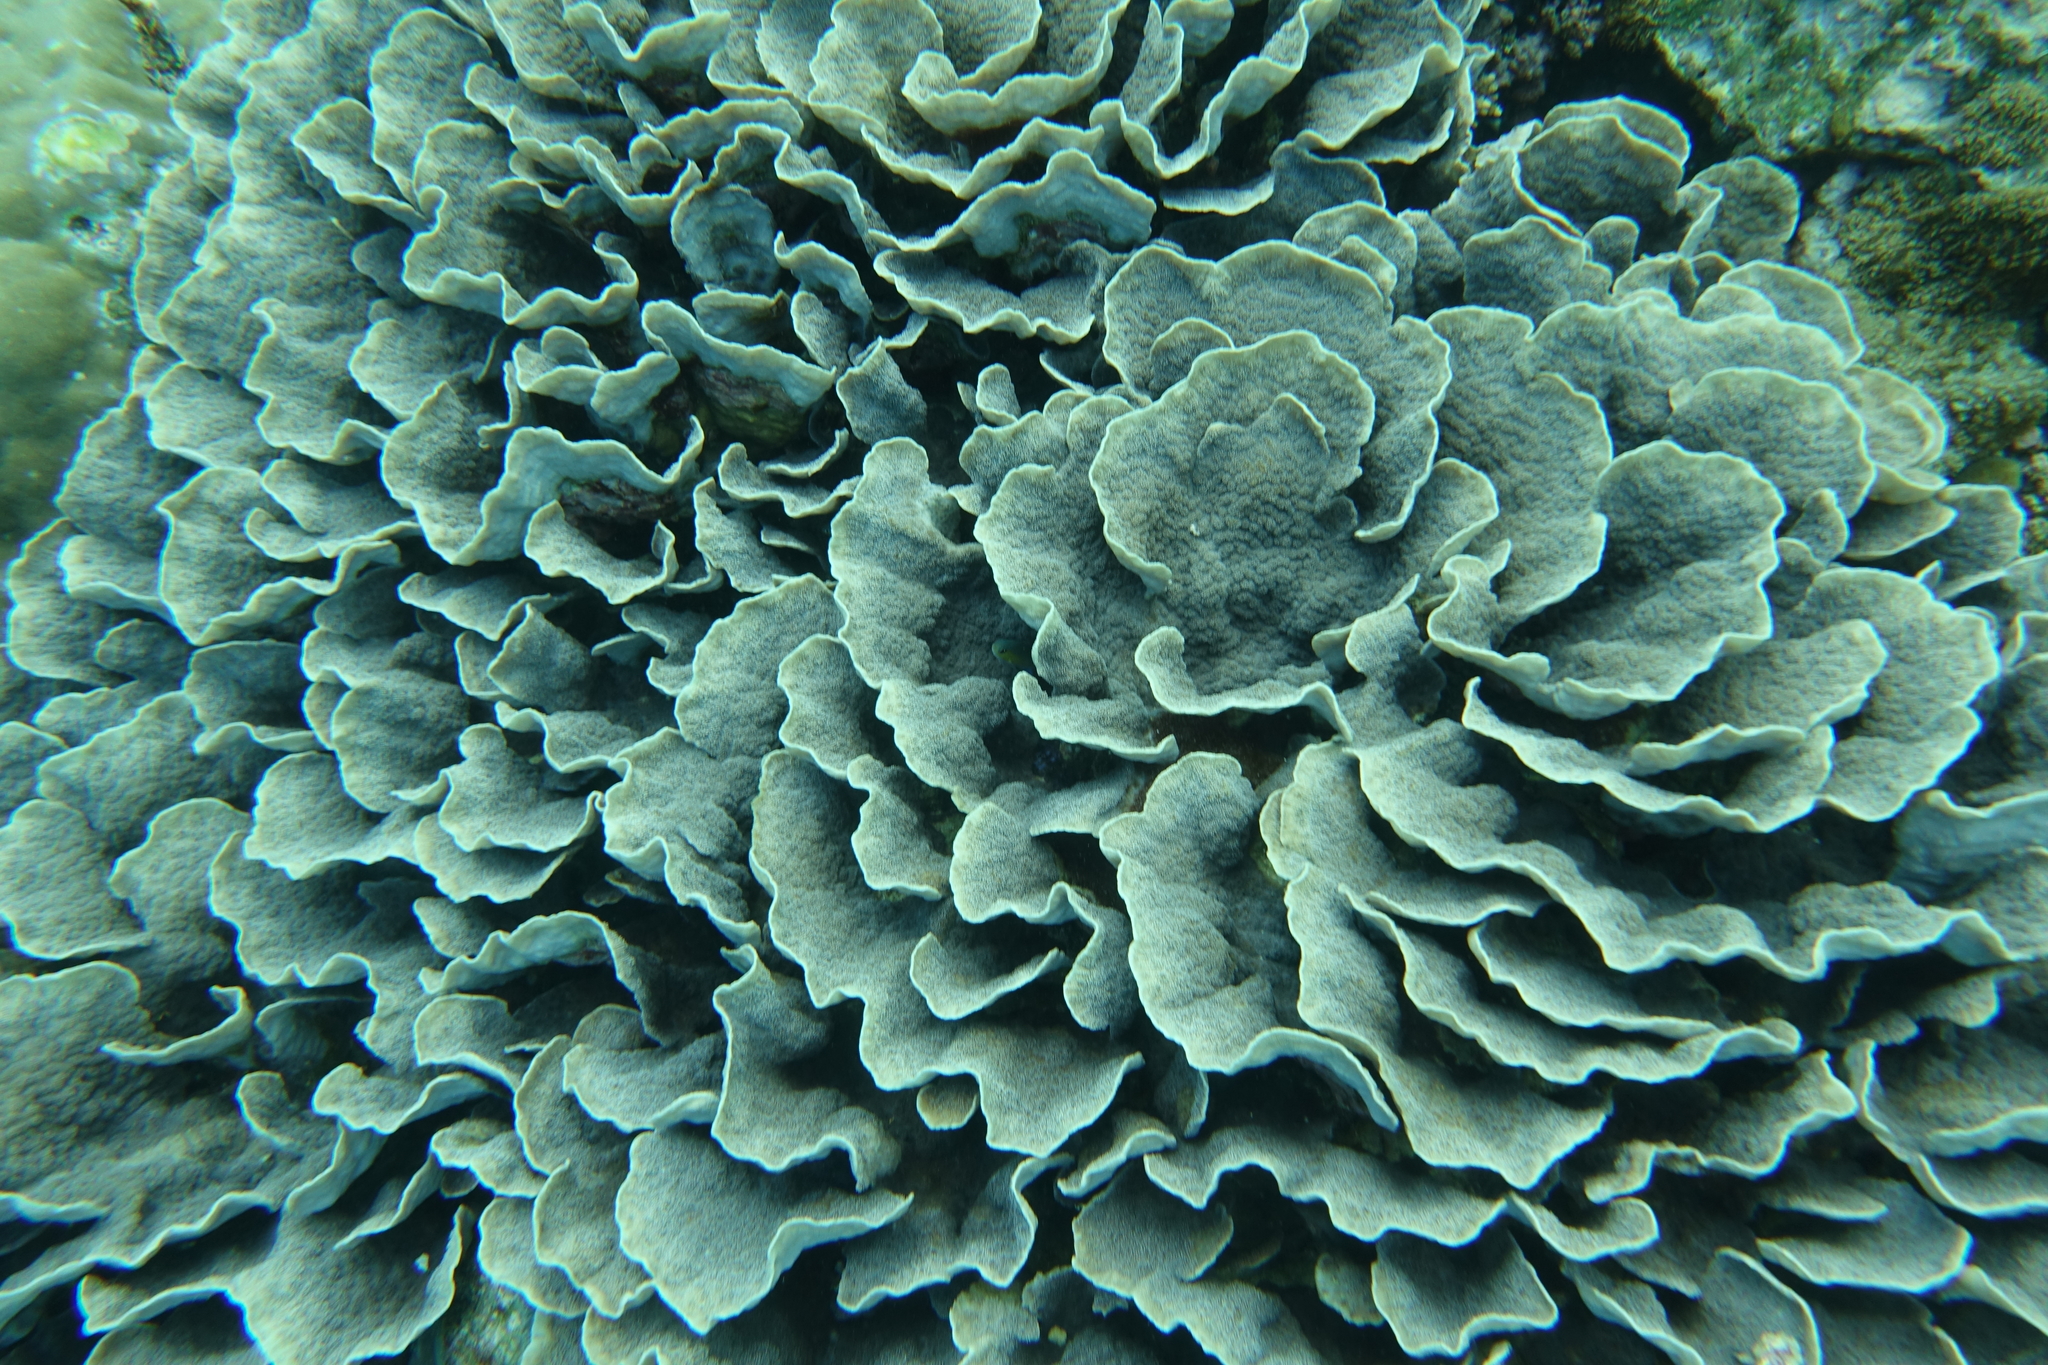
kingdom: Animalia
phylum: Cnidaria
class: Anthozoa
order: Scleractinia
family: Merulinidae
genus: Echinopora
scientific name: Echinopora lamellosa
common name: Hedgehog coral
